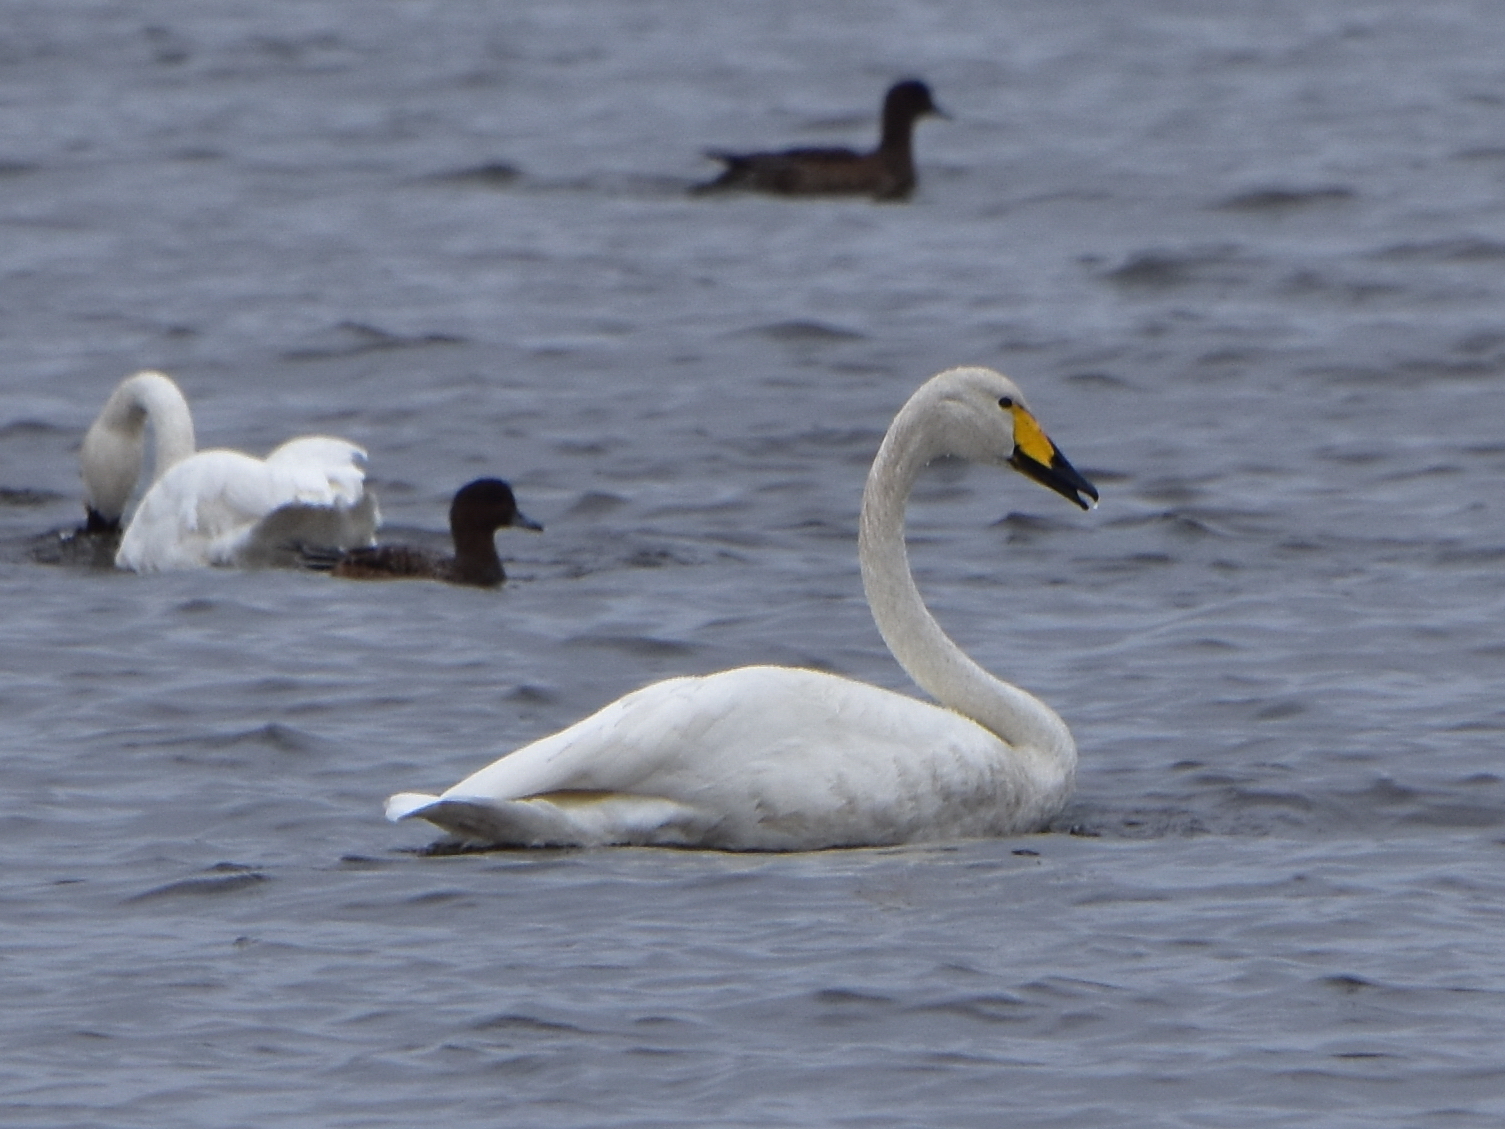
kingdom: Animalia
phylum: Chordata
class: Aves
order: Anseriformes
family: Anatidae
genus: Cygnus
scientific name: Cygnus cygnus
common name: Whooper swan
